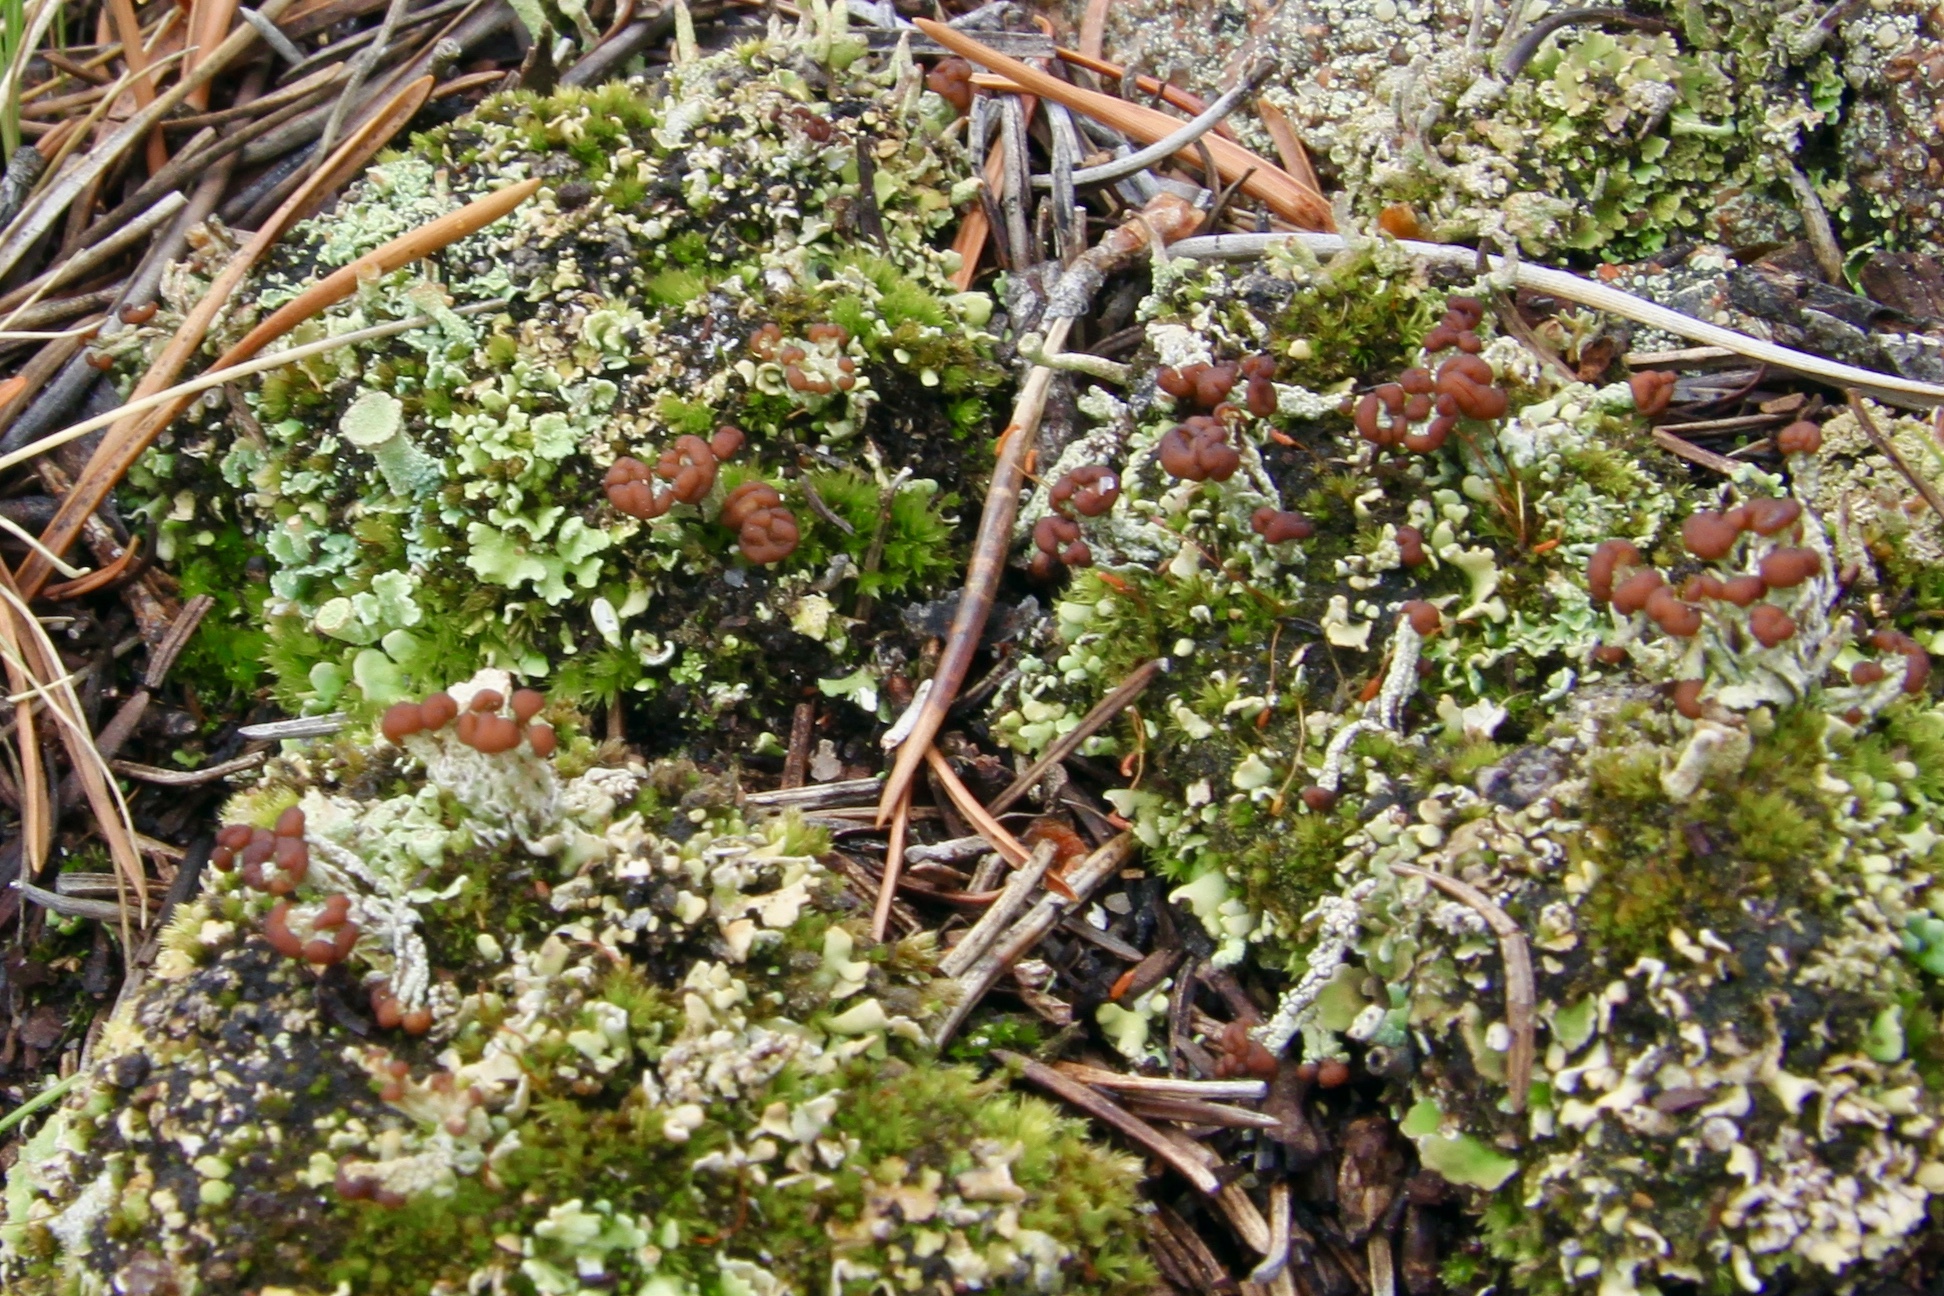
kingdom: Fungi
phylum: Ascomycota
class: Lecanoromycetes
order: Lecanorales
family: Cladoniaceae
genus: Cladonia
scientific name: Cladonia peziziformis
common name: Cup lichen
